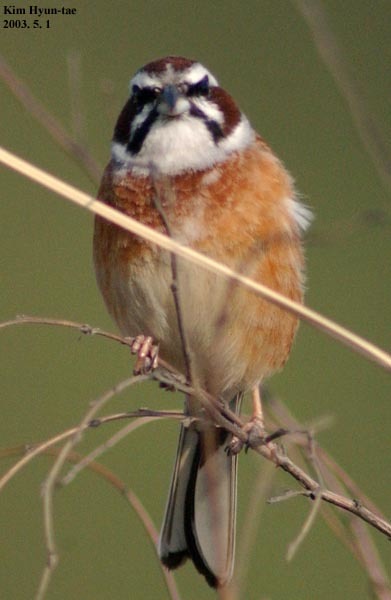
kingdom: Animalia
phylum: Chordata
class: Aves
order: Passeriformes
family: Emberizidae
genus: Emberiza
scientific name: Emberiza cioides
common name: Meadow bunting
